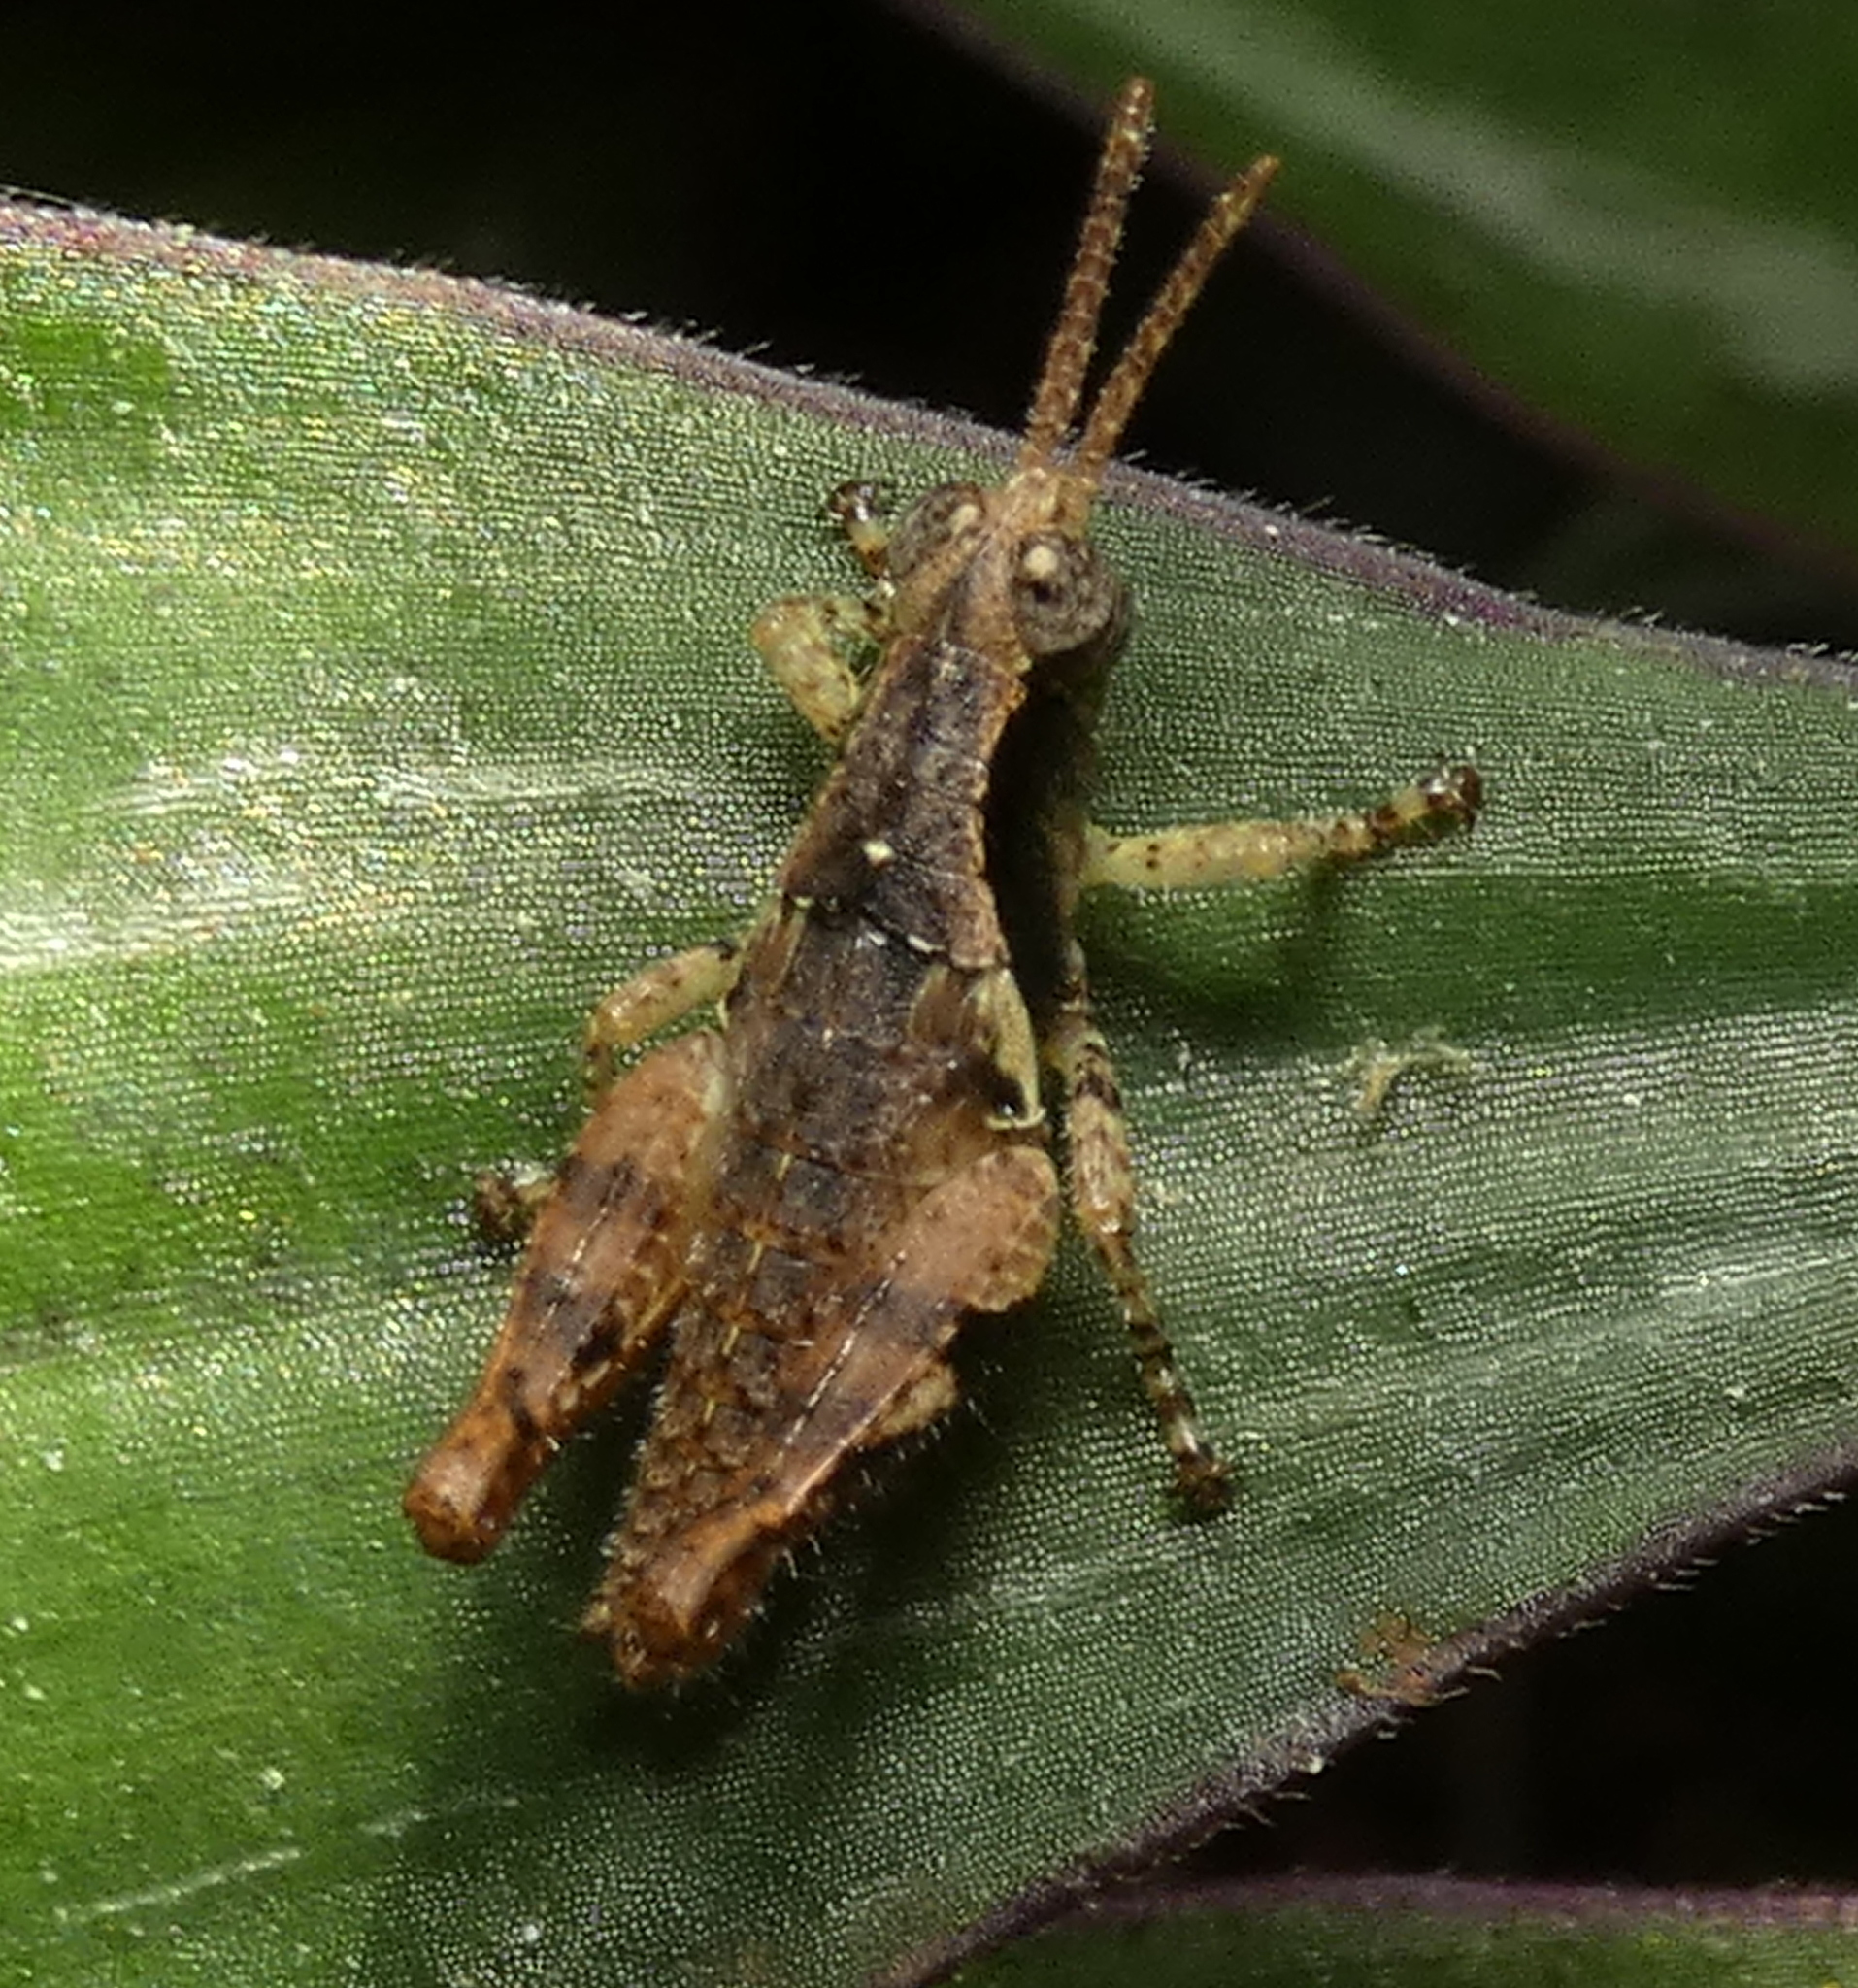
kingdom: Animalia
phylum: Arthropoda
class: Insecta
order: Orthoptera
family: Acrididae
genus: Eujivarus
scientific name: Eujivarus meridionalis
